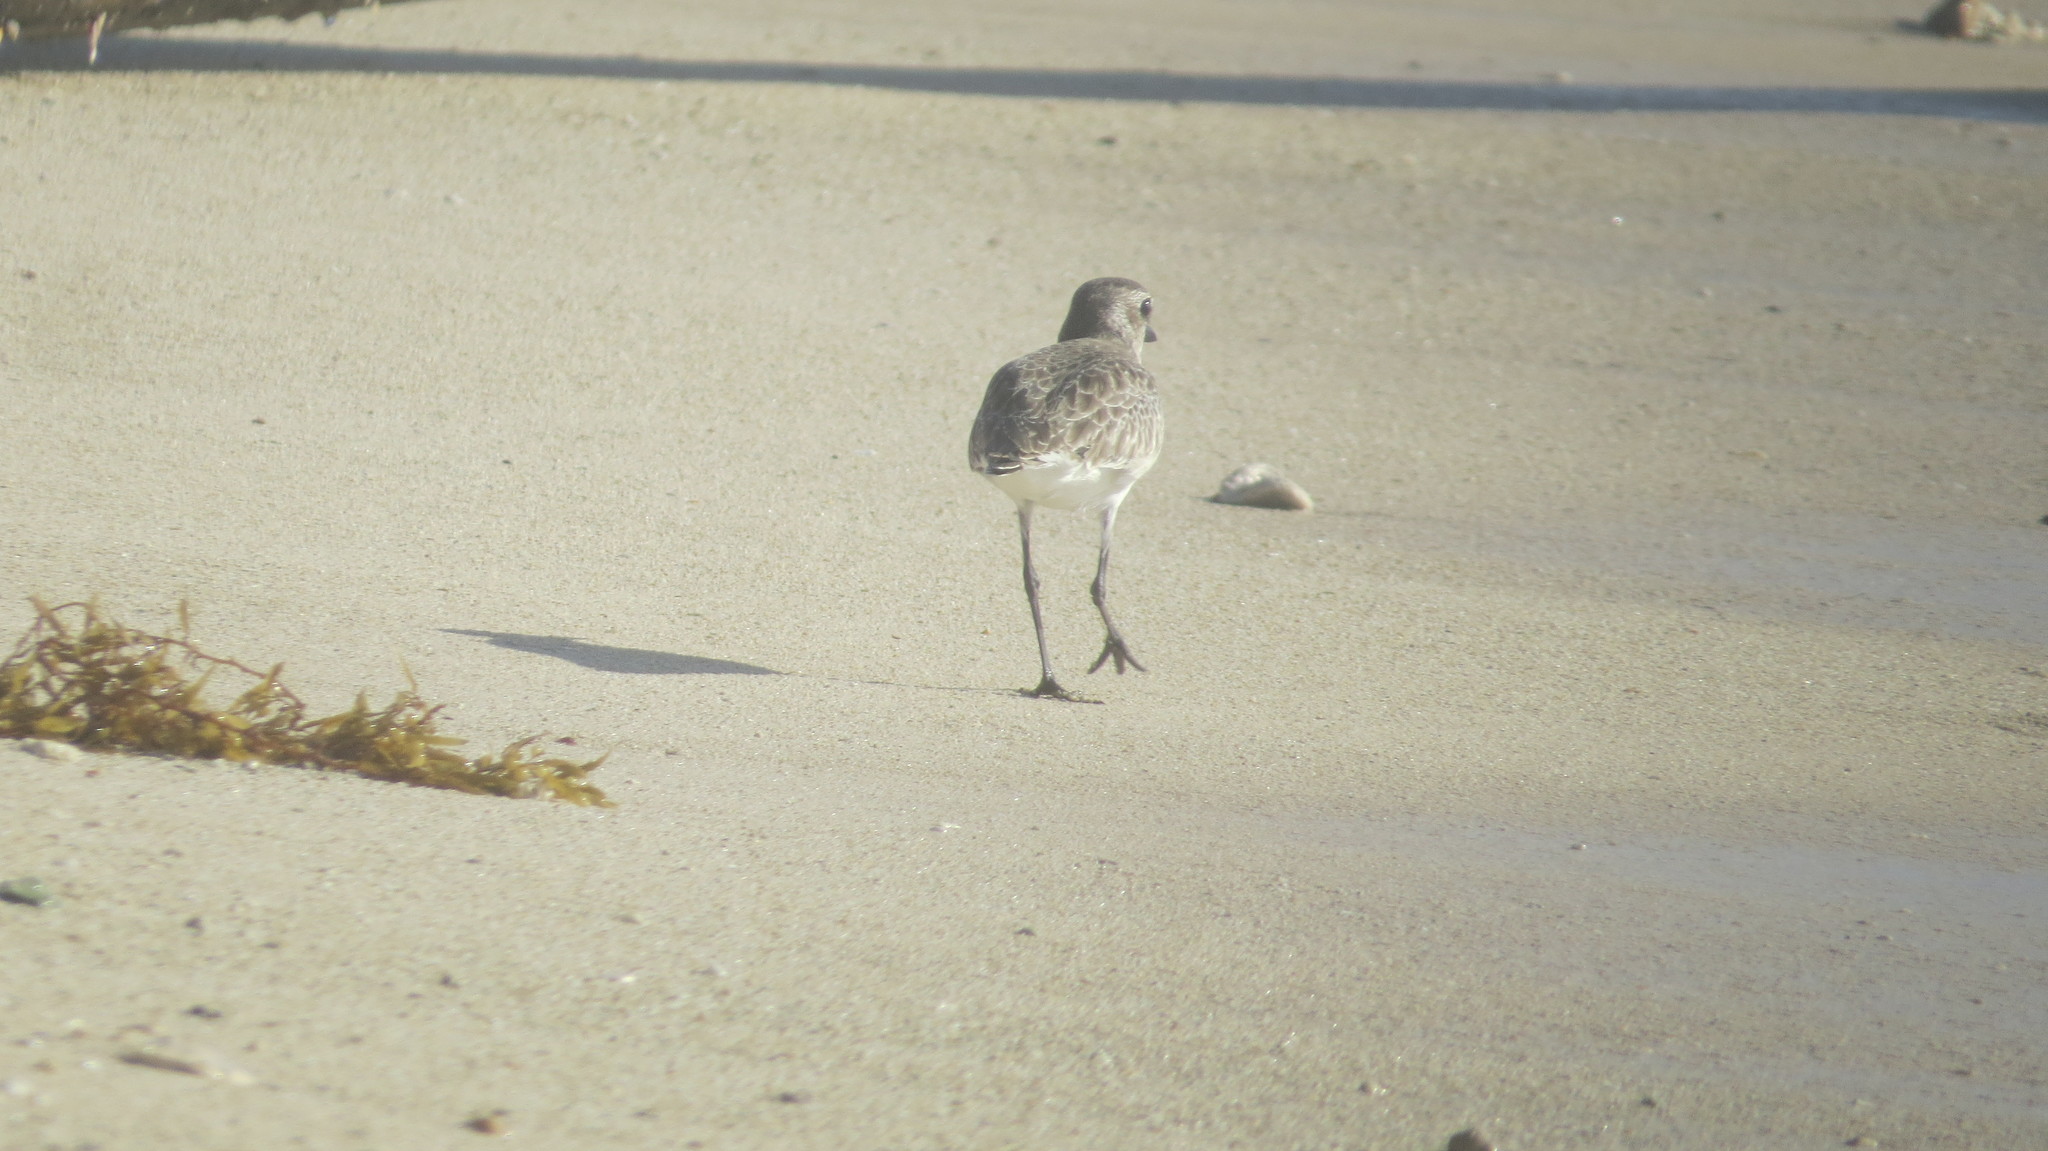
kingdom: Animalia
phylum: Chordata
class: Aves
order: Charadriiformes
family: Charadriidae
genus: Pluvialis
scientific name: Pluvialis squatarola
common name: Grey plover
